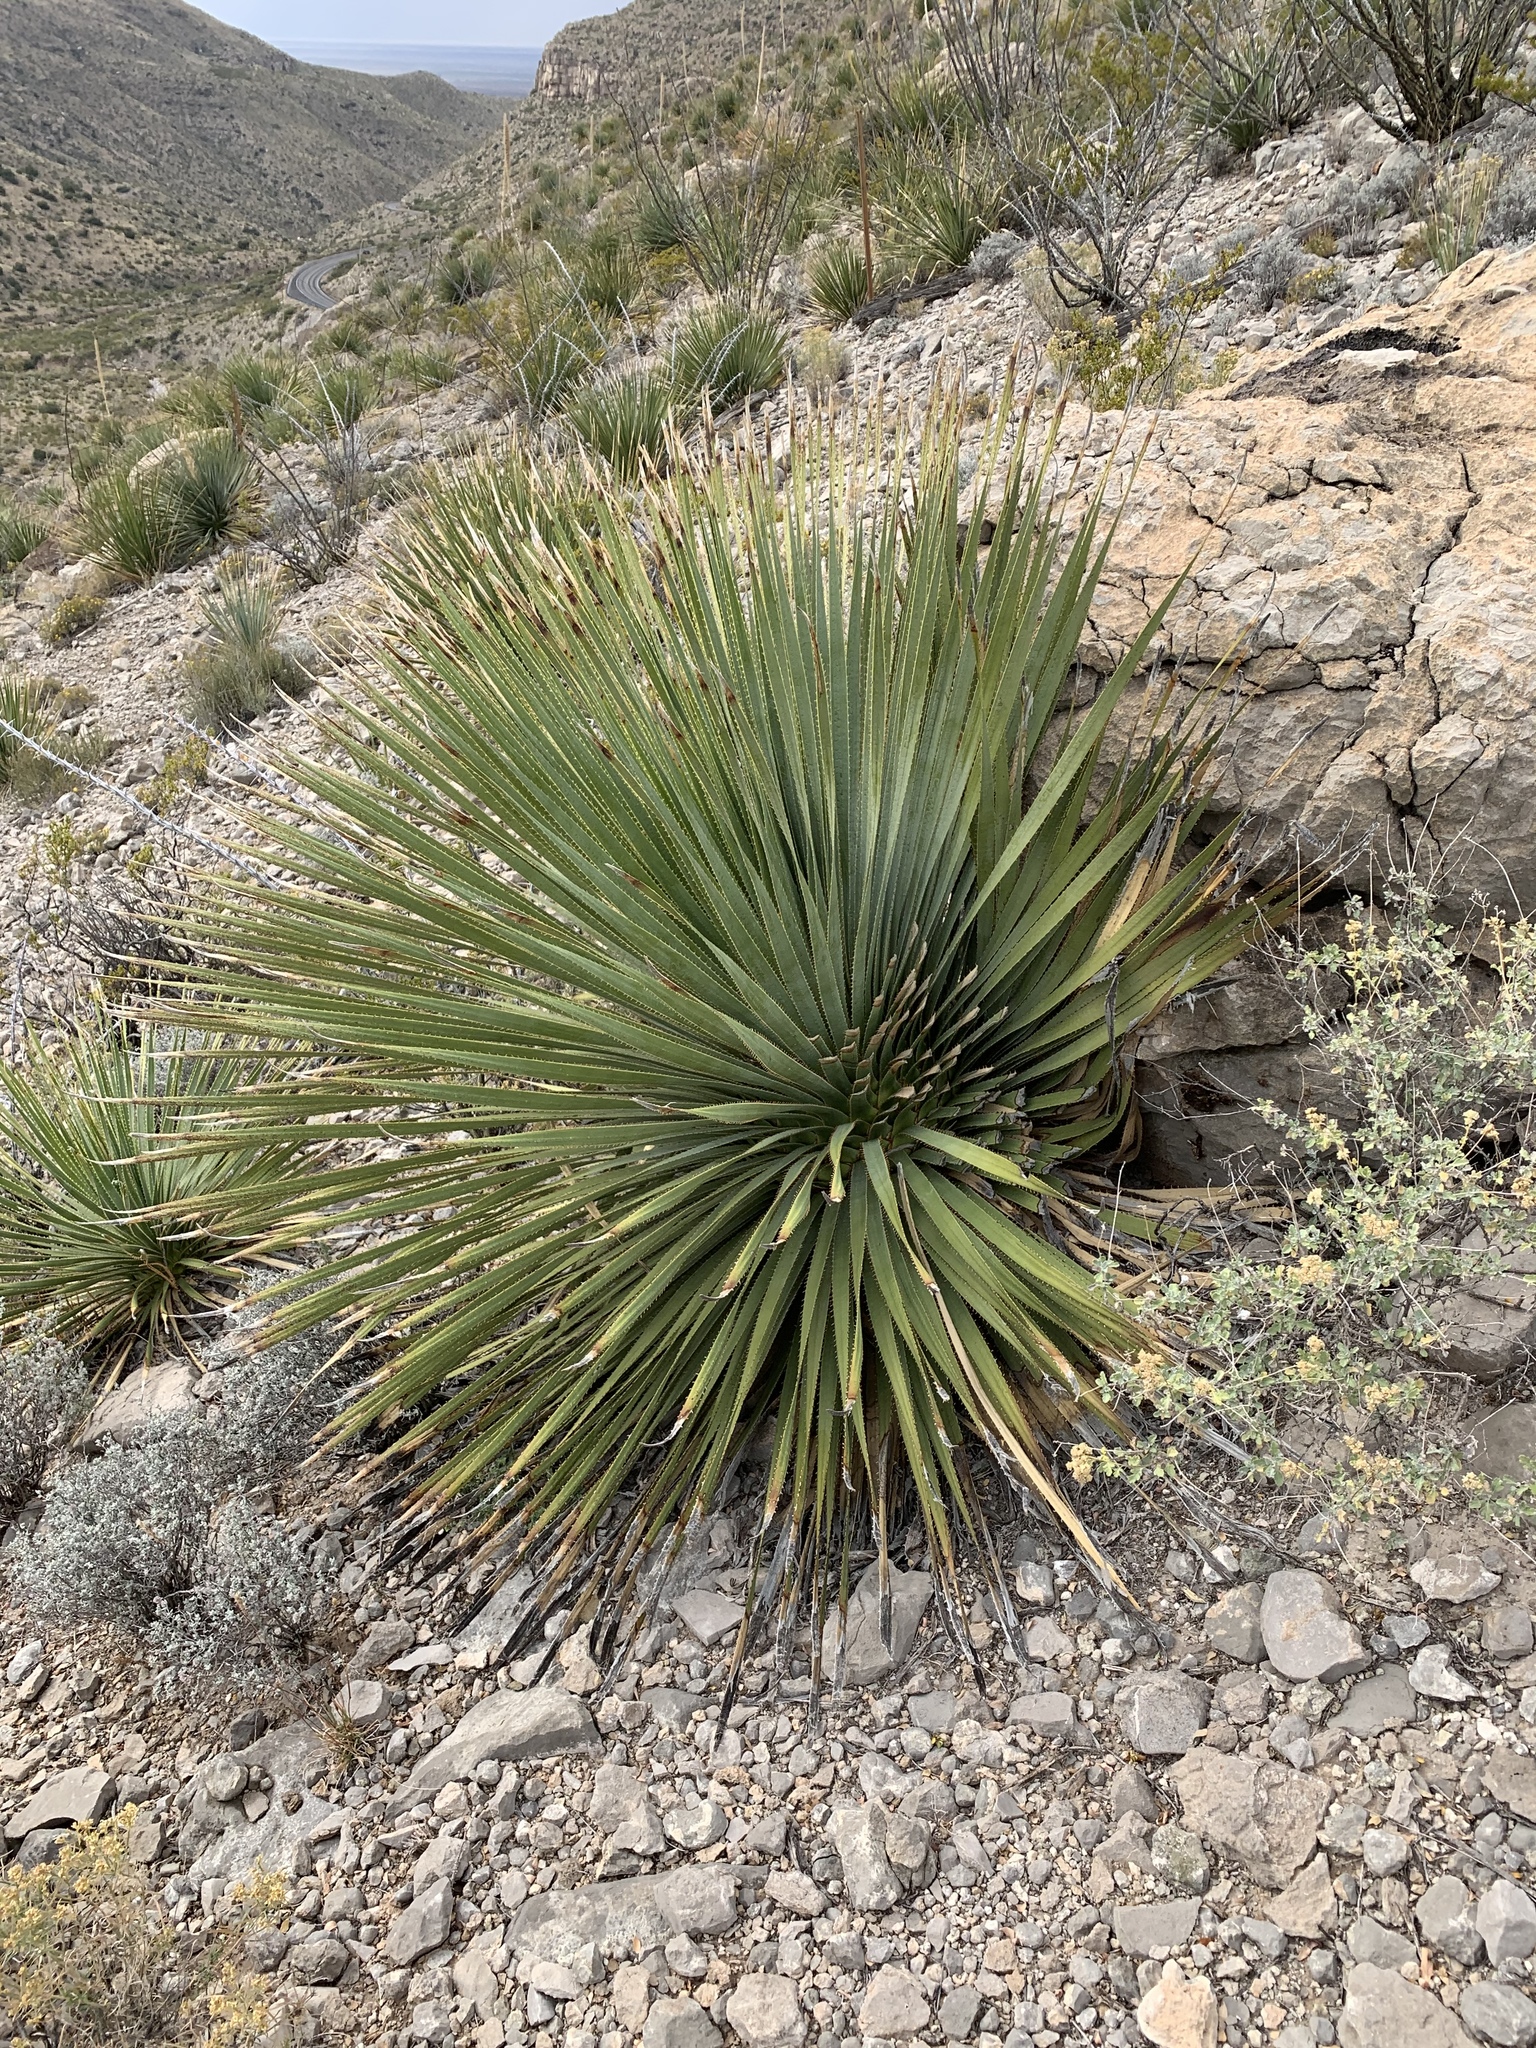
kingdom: Plantae
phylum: Tracheophyta
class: Liliopsida
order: Asparagales
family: Asparagaceae
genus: Dasylirion
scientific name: Dasylirion wheeleri
